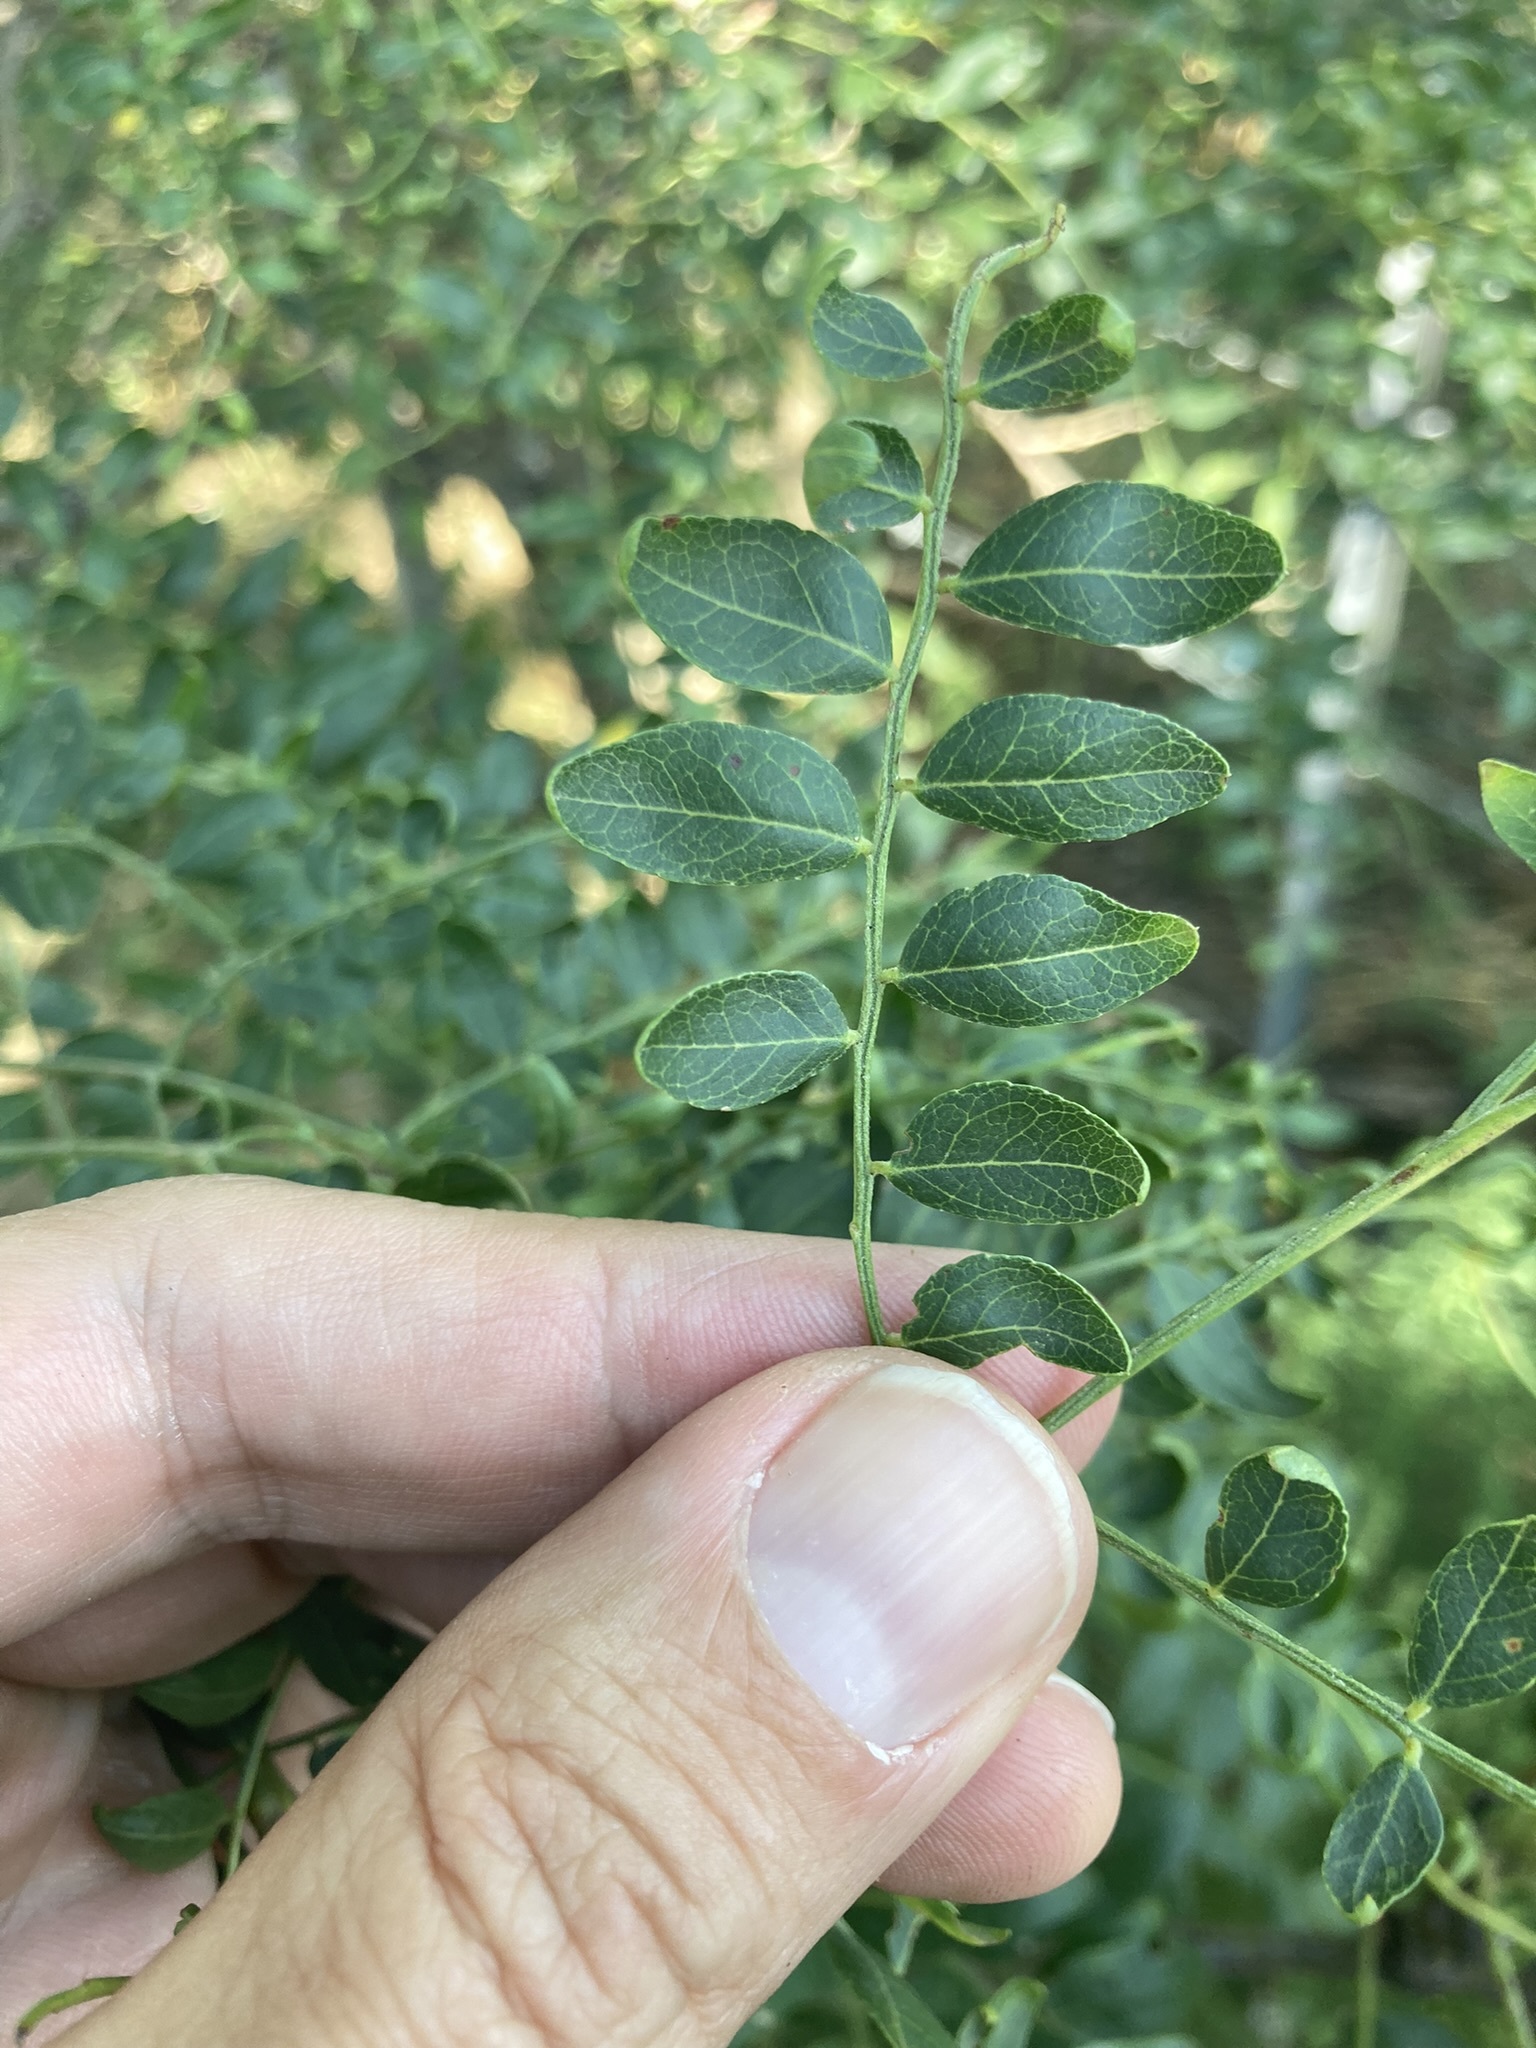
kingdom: Plantae
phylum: Tracheophyta
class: Magnoliopsida
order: Fabales
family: Fabaceae
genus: Gleditsia
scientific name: Gleditsia triacanthos
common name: Common honeylocust
